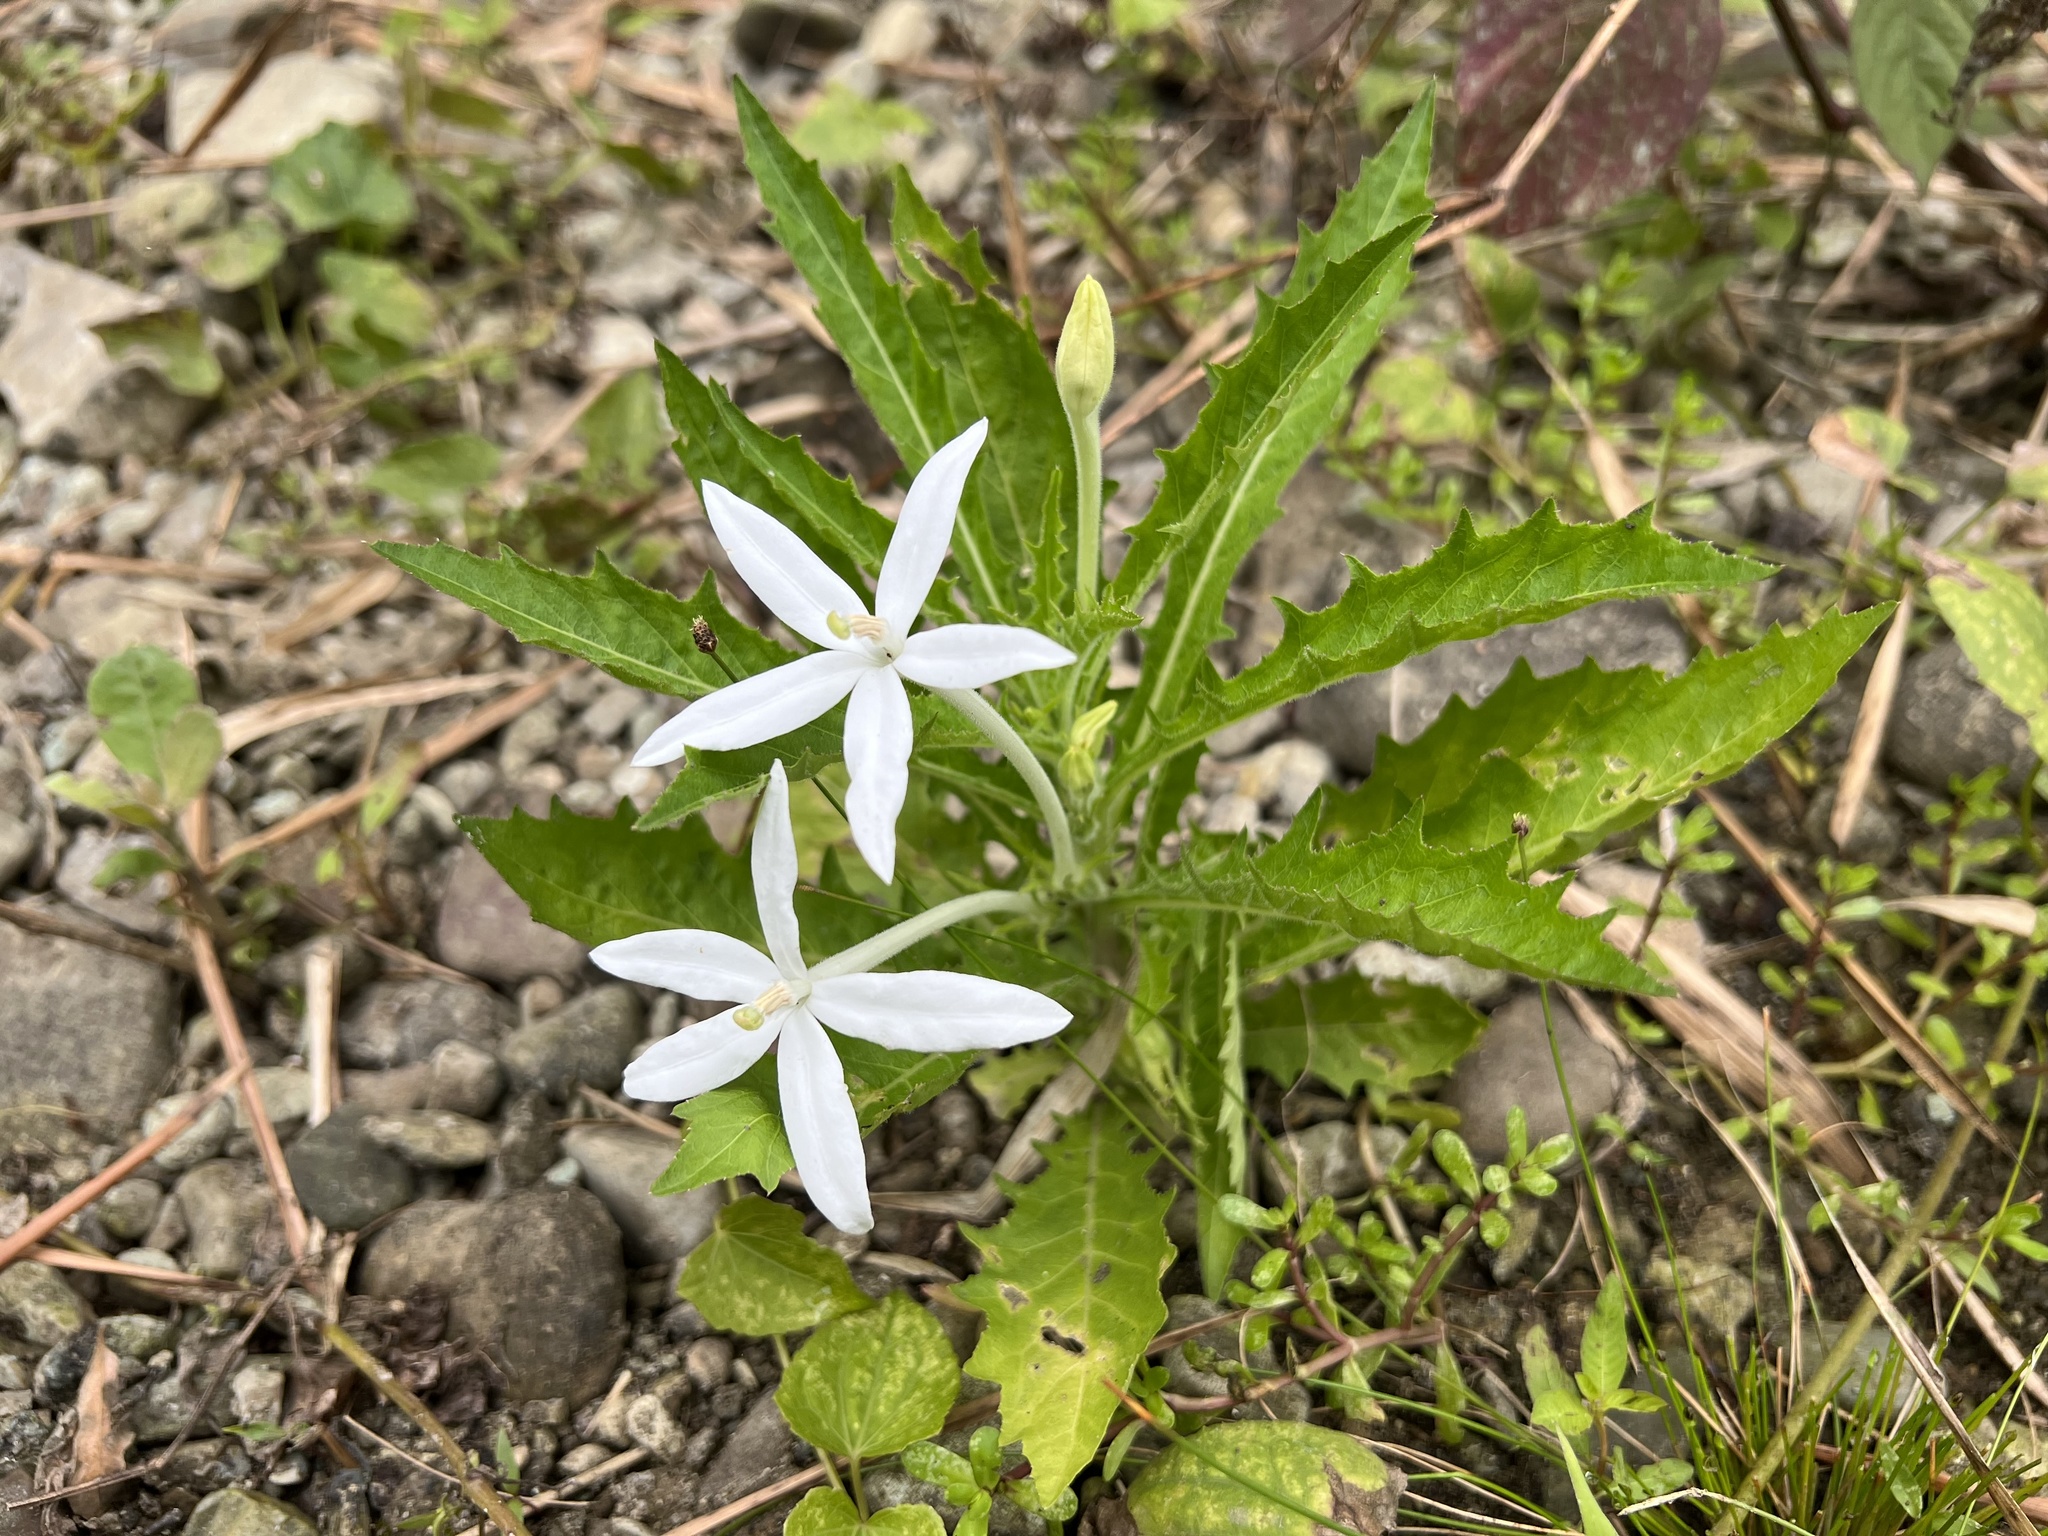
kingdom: Plantae
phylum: Tracheophyta
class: Magnoliopsida
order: Asterales
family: Campanulaceae
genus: Hippobroma
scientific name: Hippobroma longiflora
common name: Madamfate
